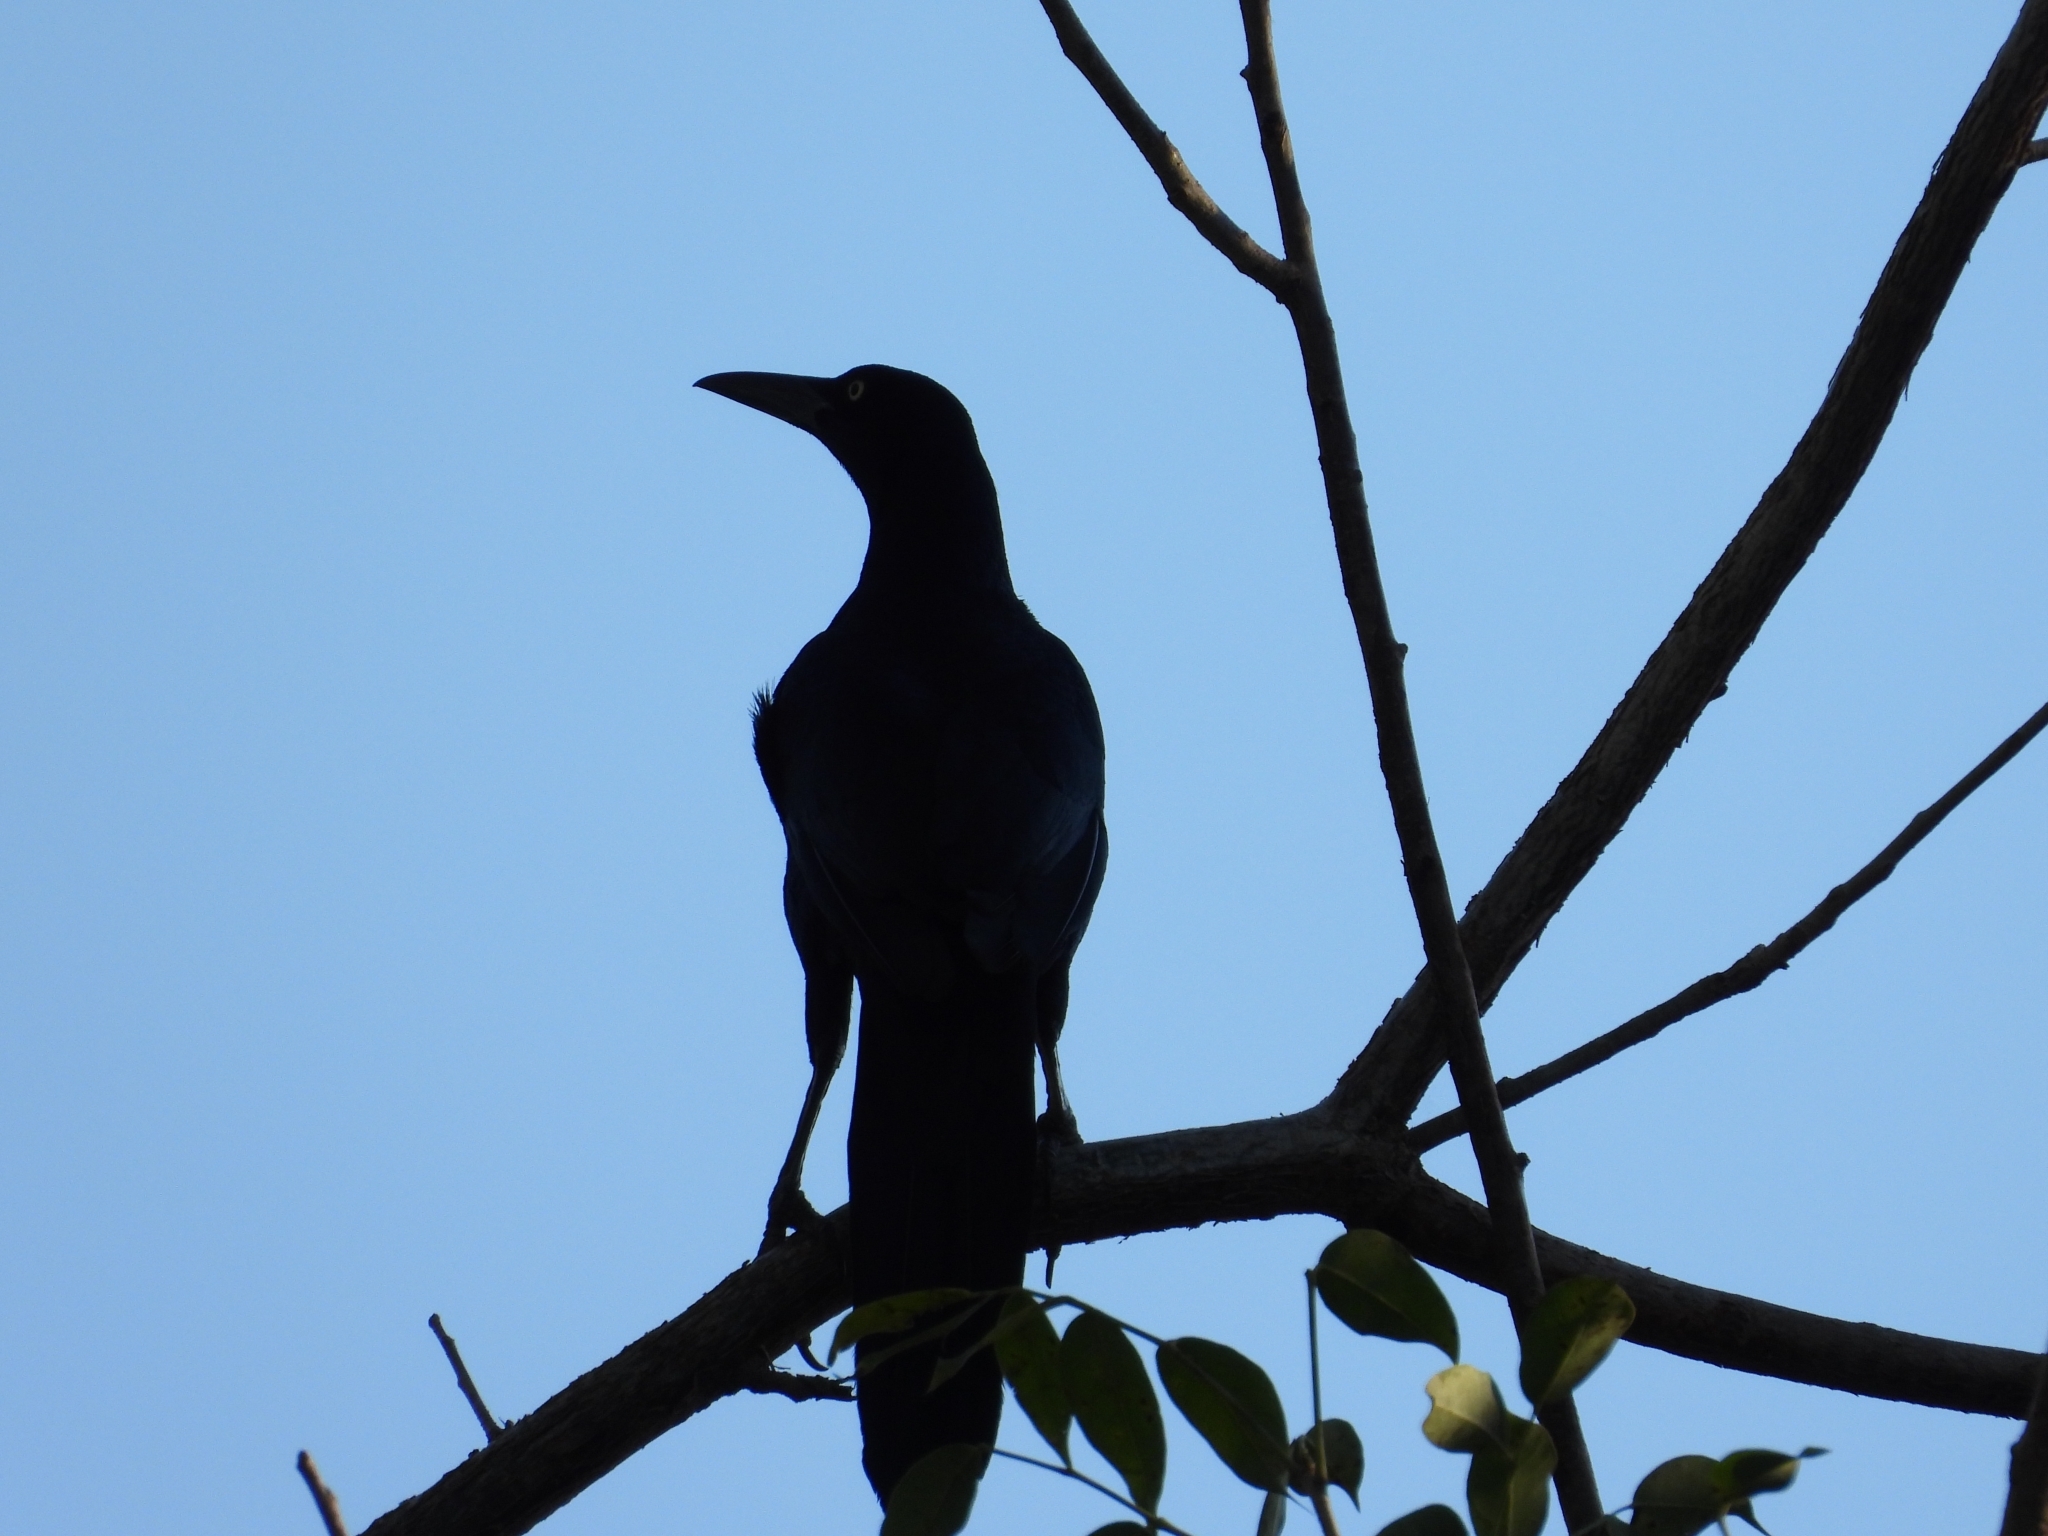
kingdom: Animalia
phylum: Chordata
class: Aves
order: Passeriformes
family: Icteridae
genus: Quiscalus
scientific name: Quiscalus mexicanus
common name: Great-tailed grackle
